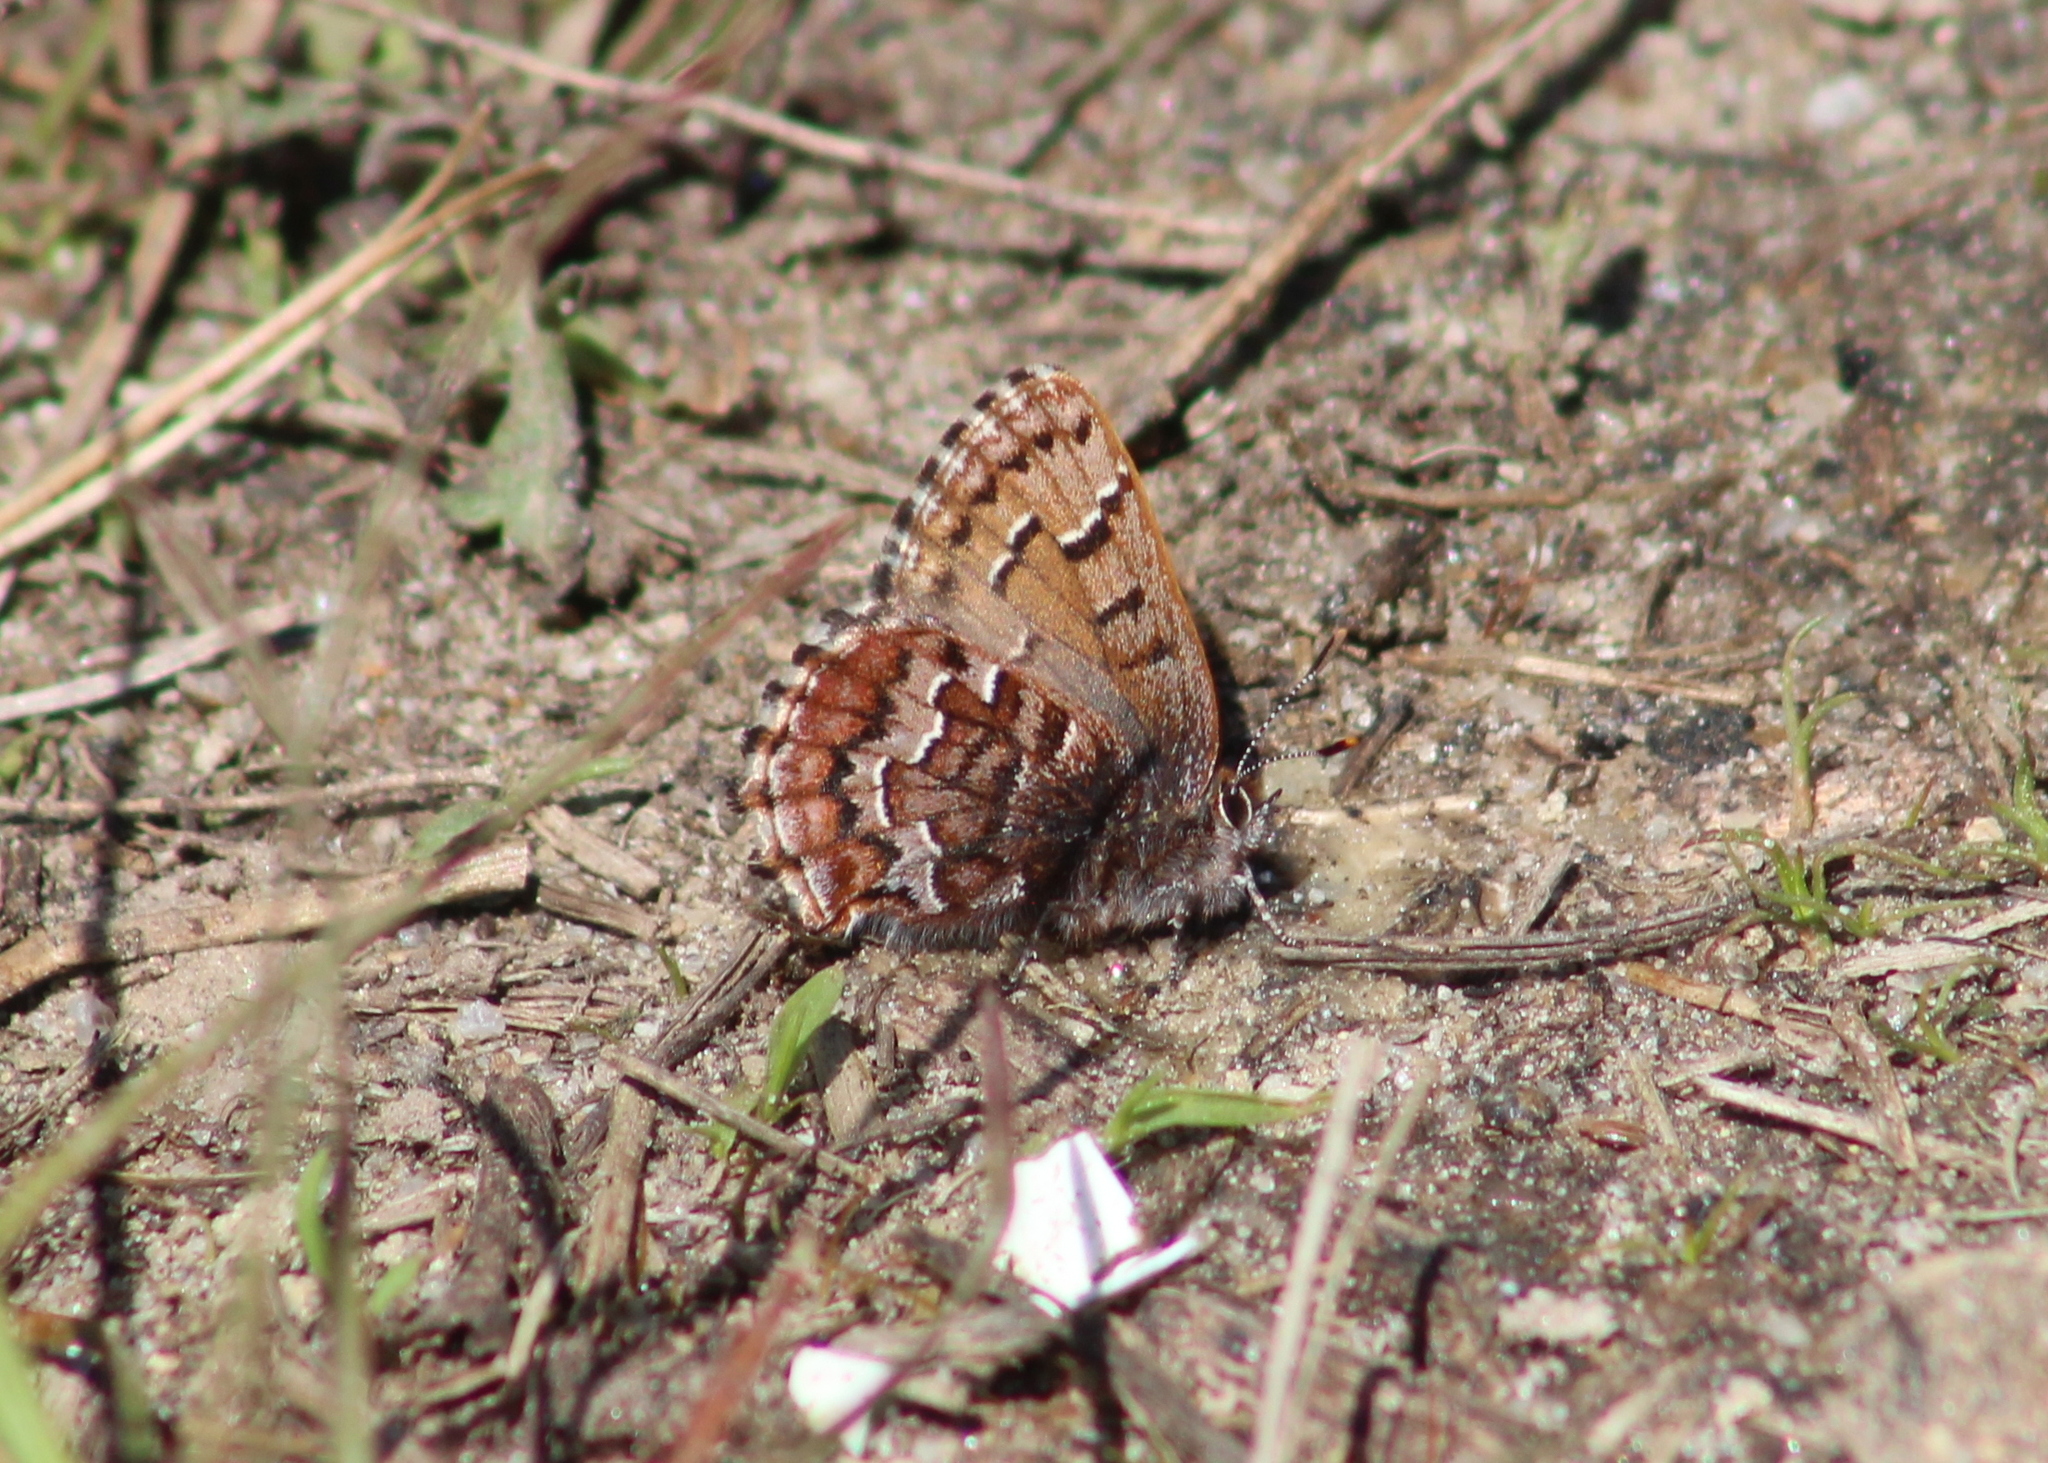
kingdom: Animalia
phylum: Arthropoda
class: Insecta
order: Lepidoptera
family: Lycaenidae
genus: Incisalia
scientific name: Incisalia niphon
